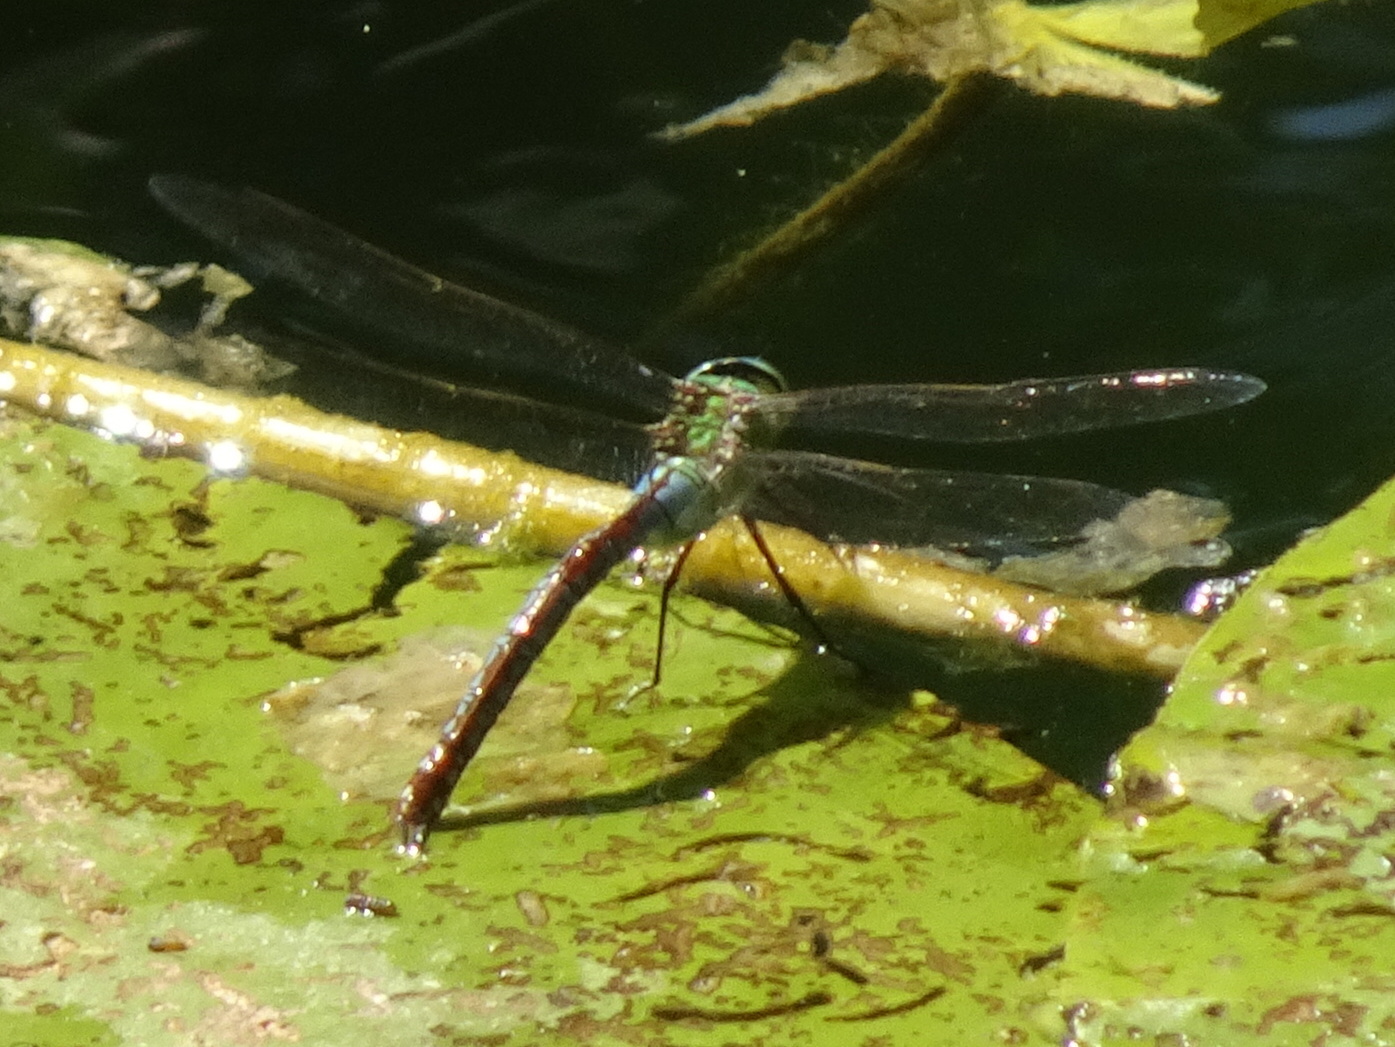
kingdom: Animalia
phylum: Arthropoda
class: Insecta
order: Odonata
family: Aeshnidae
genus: Anax
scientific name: Anax imperator
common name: Emperor dragonfly
